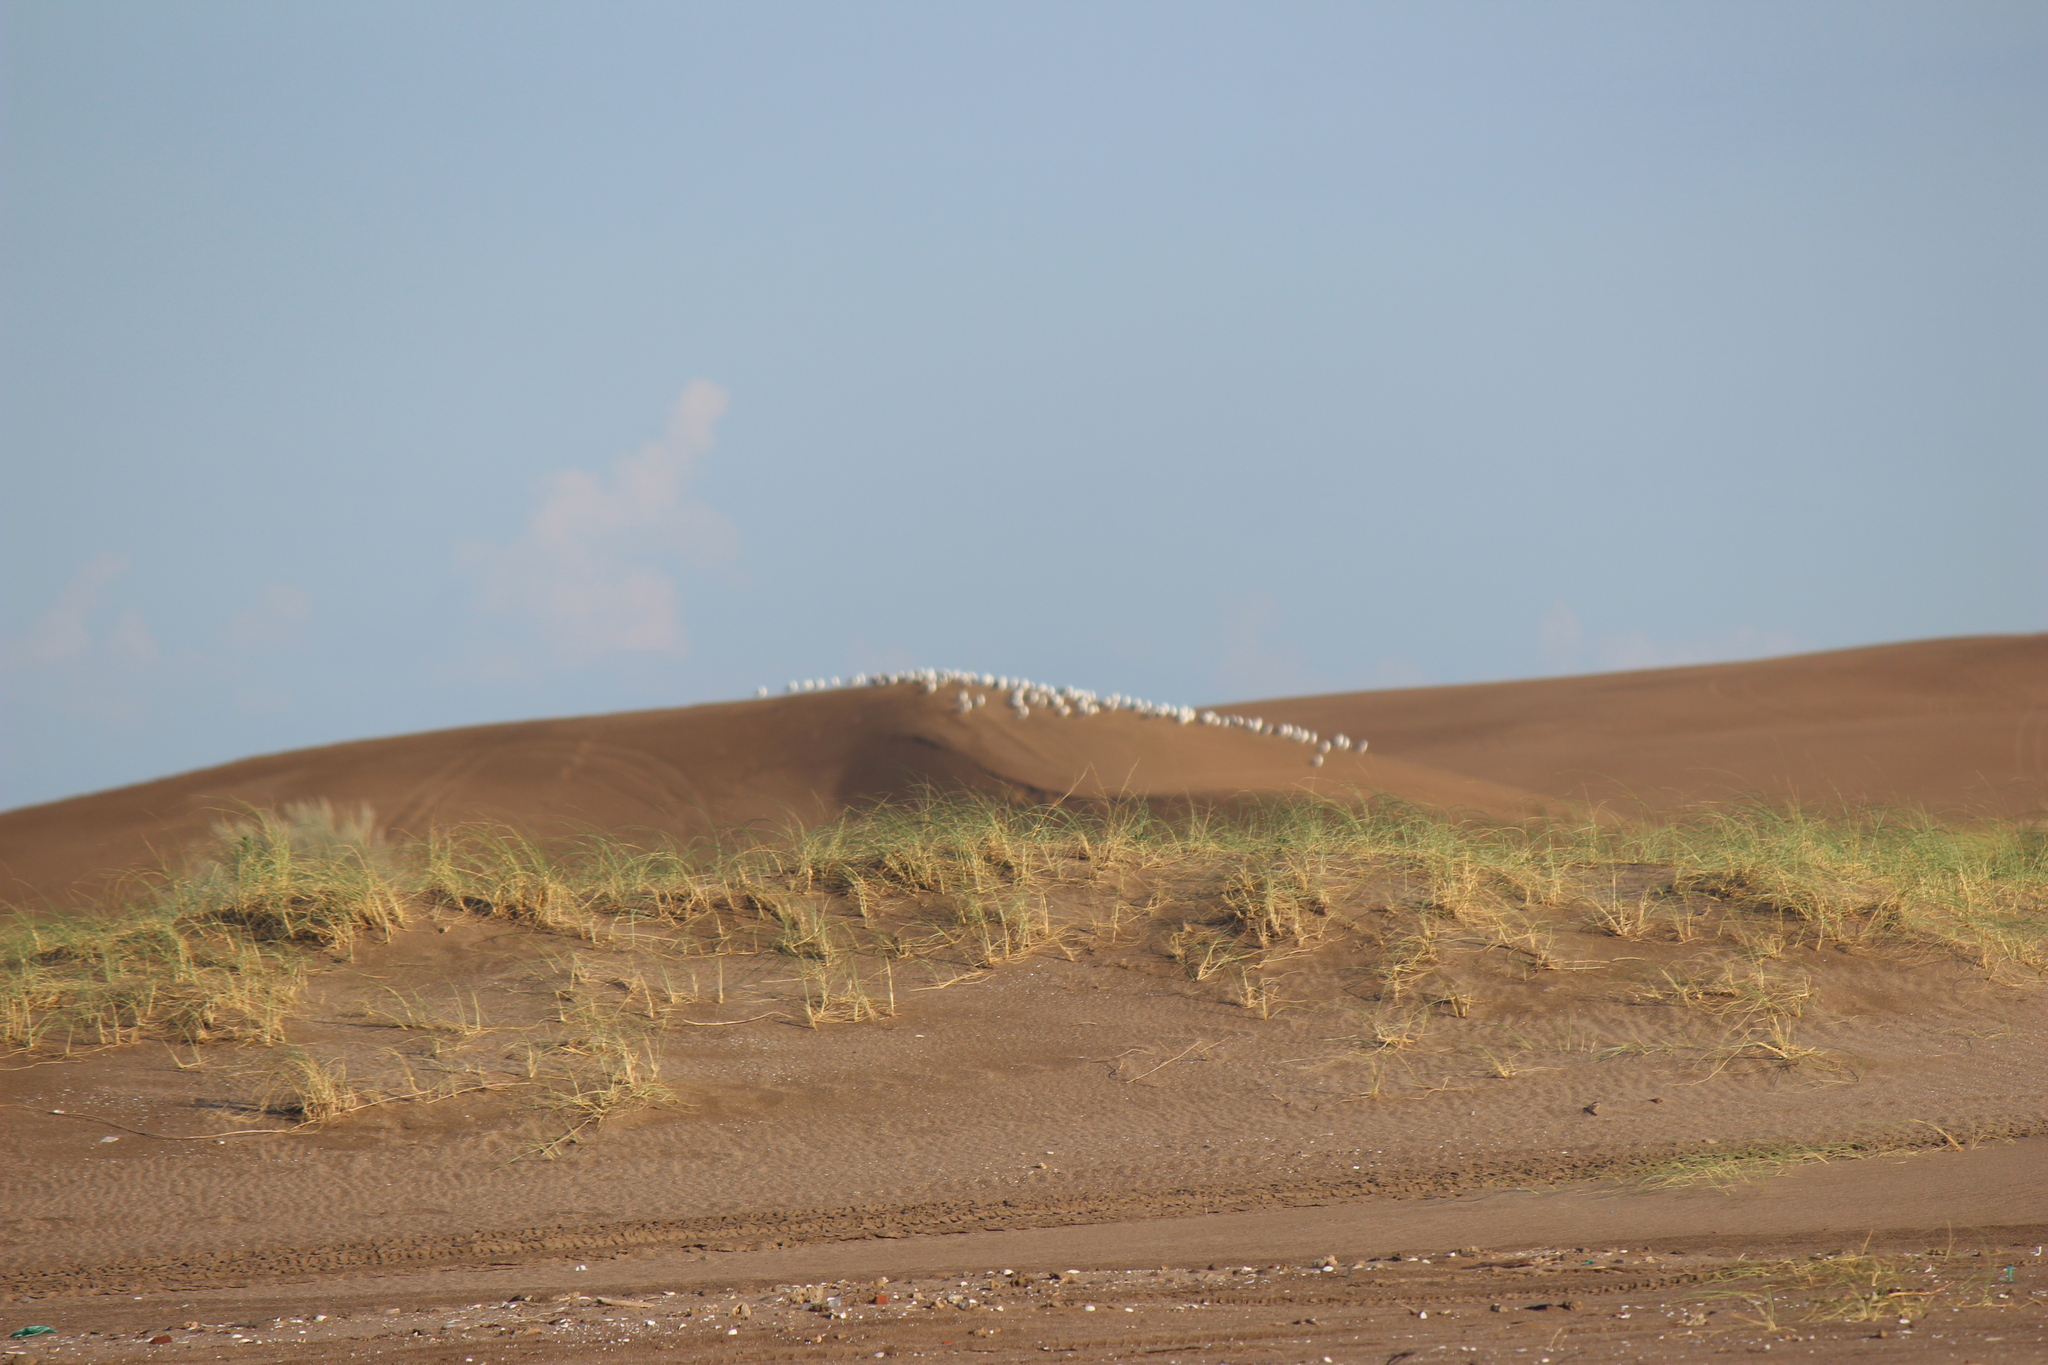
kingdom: Plantae
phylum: Tracheophyta
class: Liliopsida
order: Poales
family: Poaceae
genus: Panicum
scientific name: Panicum racemosum
